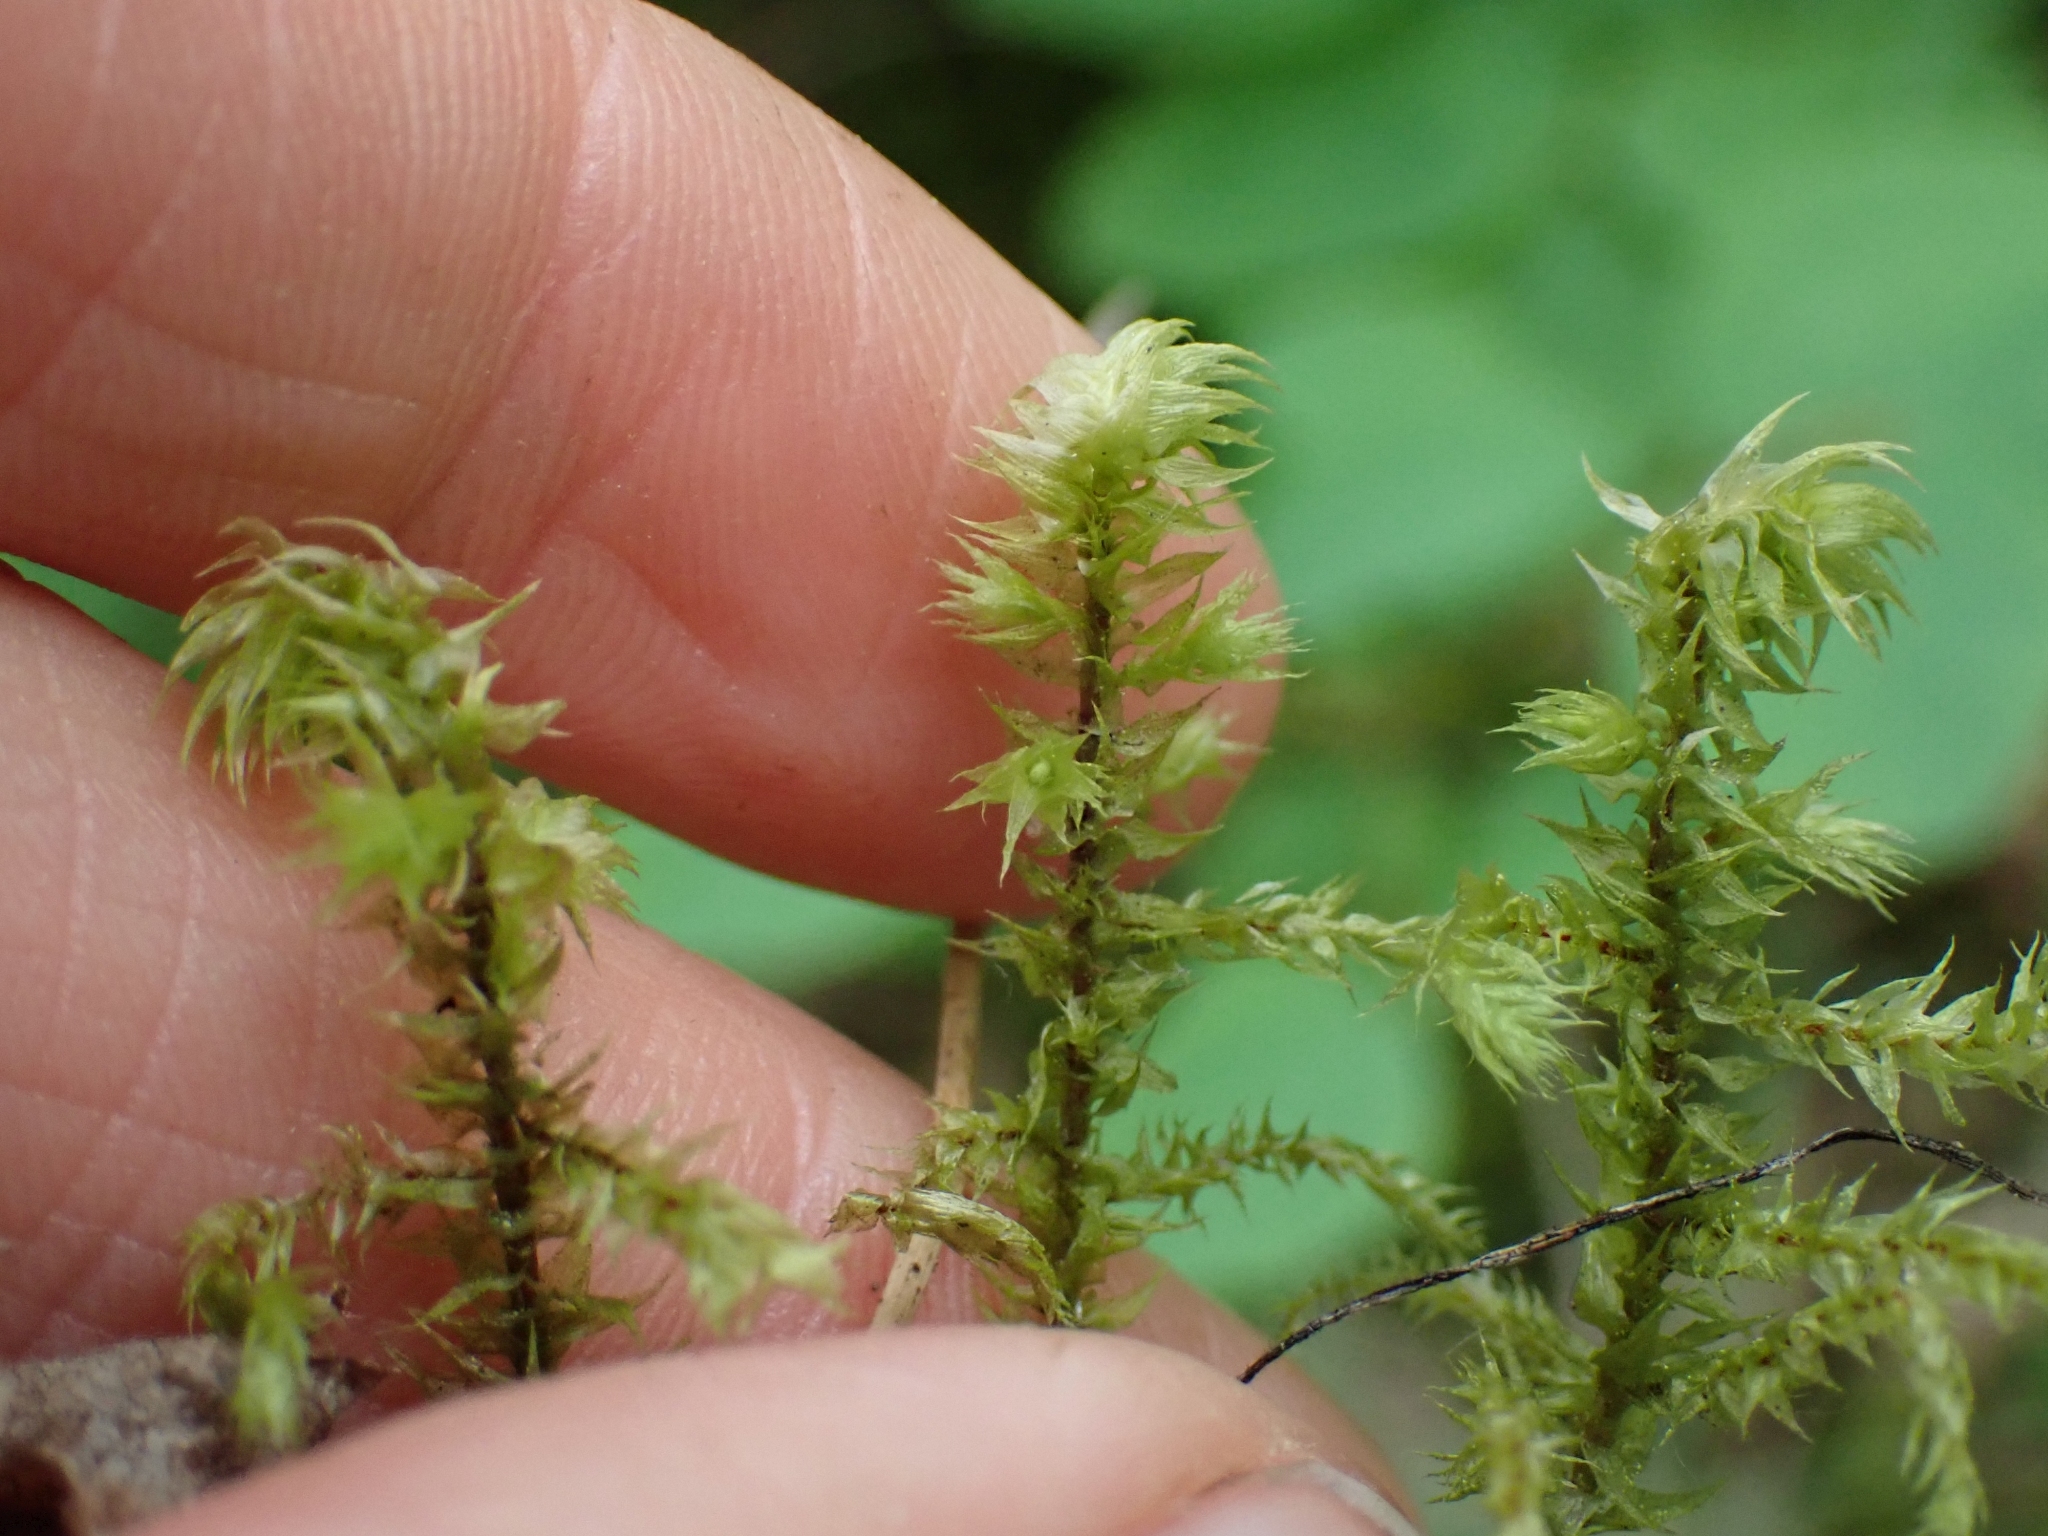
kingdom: Plantae
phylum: Bryophyta
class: Bryopsida
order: Hypnales
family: Hylocomiaceae
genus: Hylocomiadelphus
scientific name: Hylocomiadelphus triquetrus
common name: Rough goose neck moss
